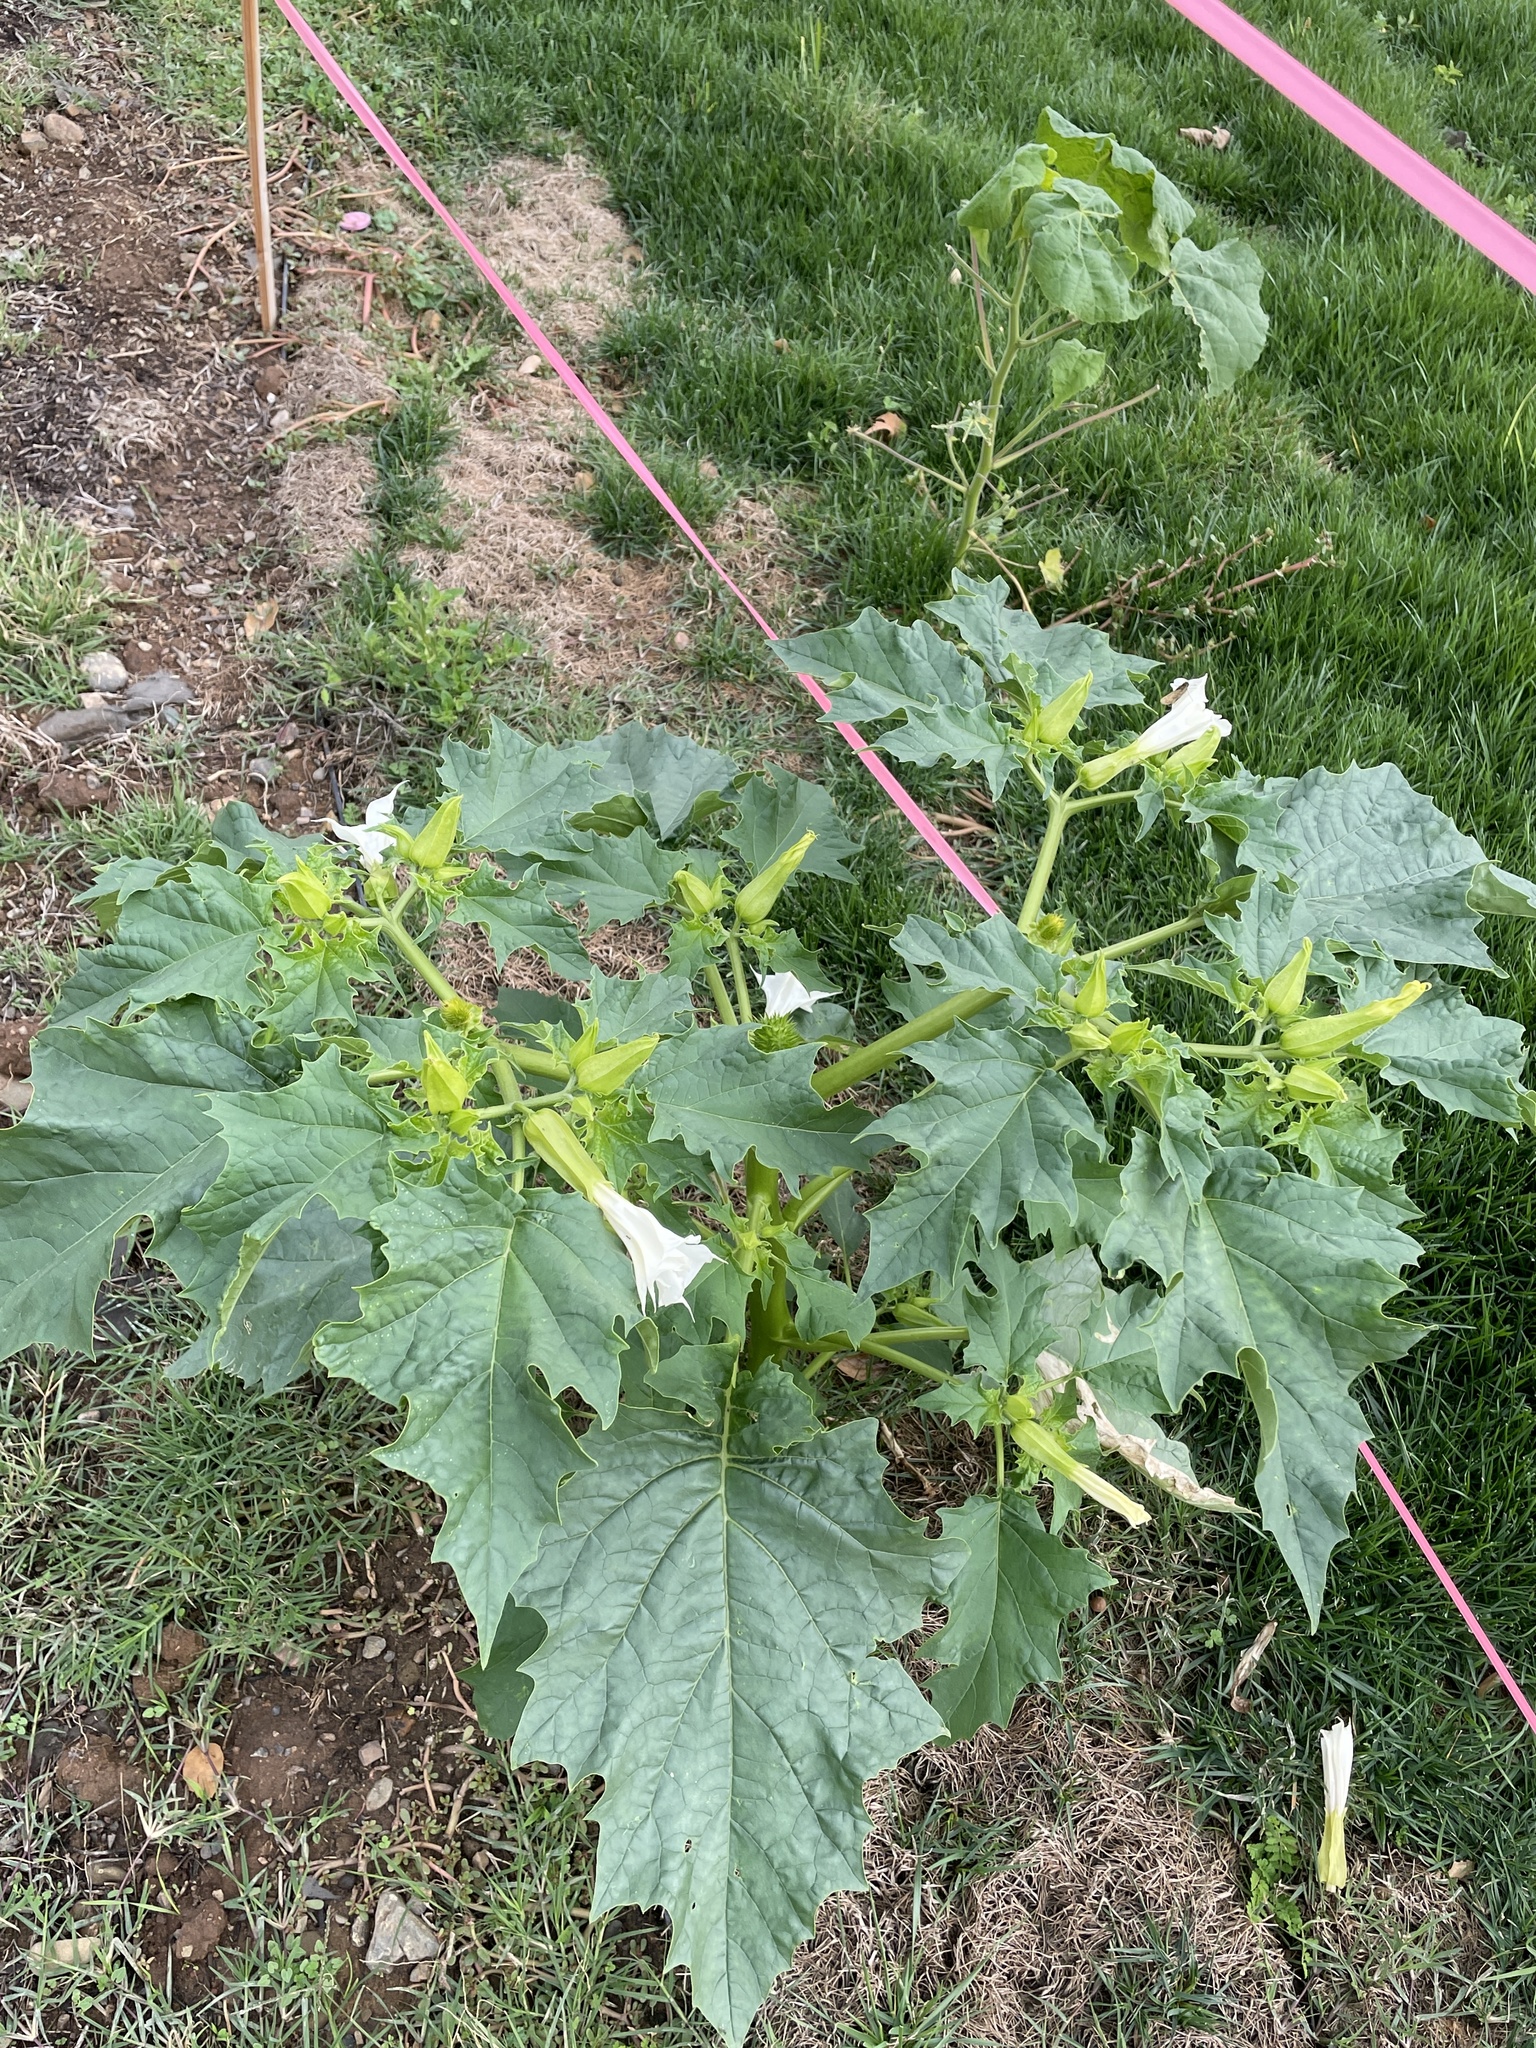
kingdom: Plantae
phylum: Tracheophyta
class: Magnoliopsida
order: Solanales
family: Solanaceae
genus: Datura
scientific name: Datura stramonium
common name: Thorn-apple
